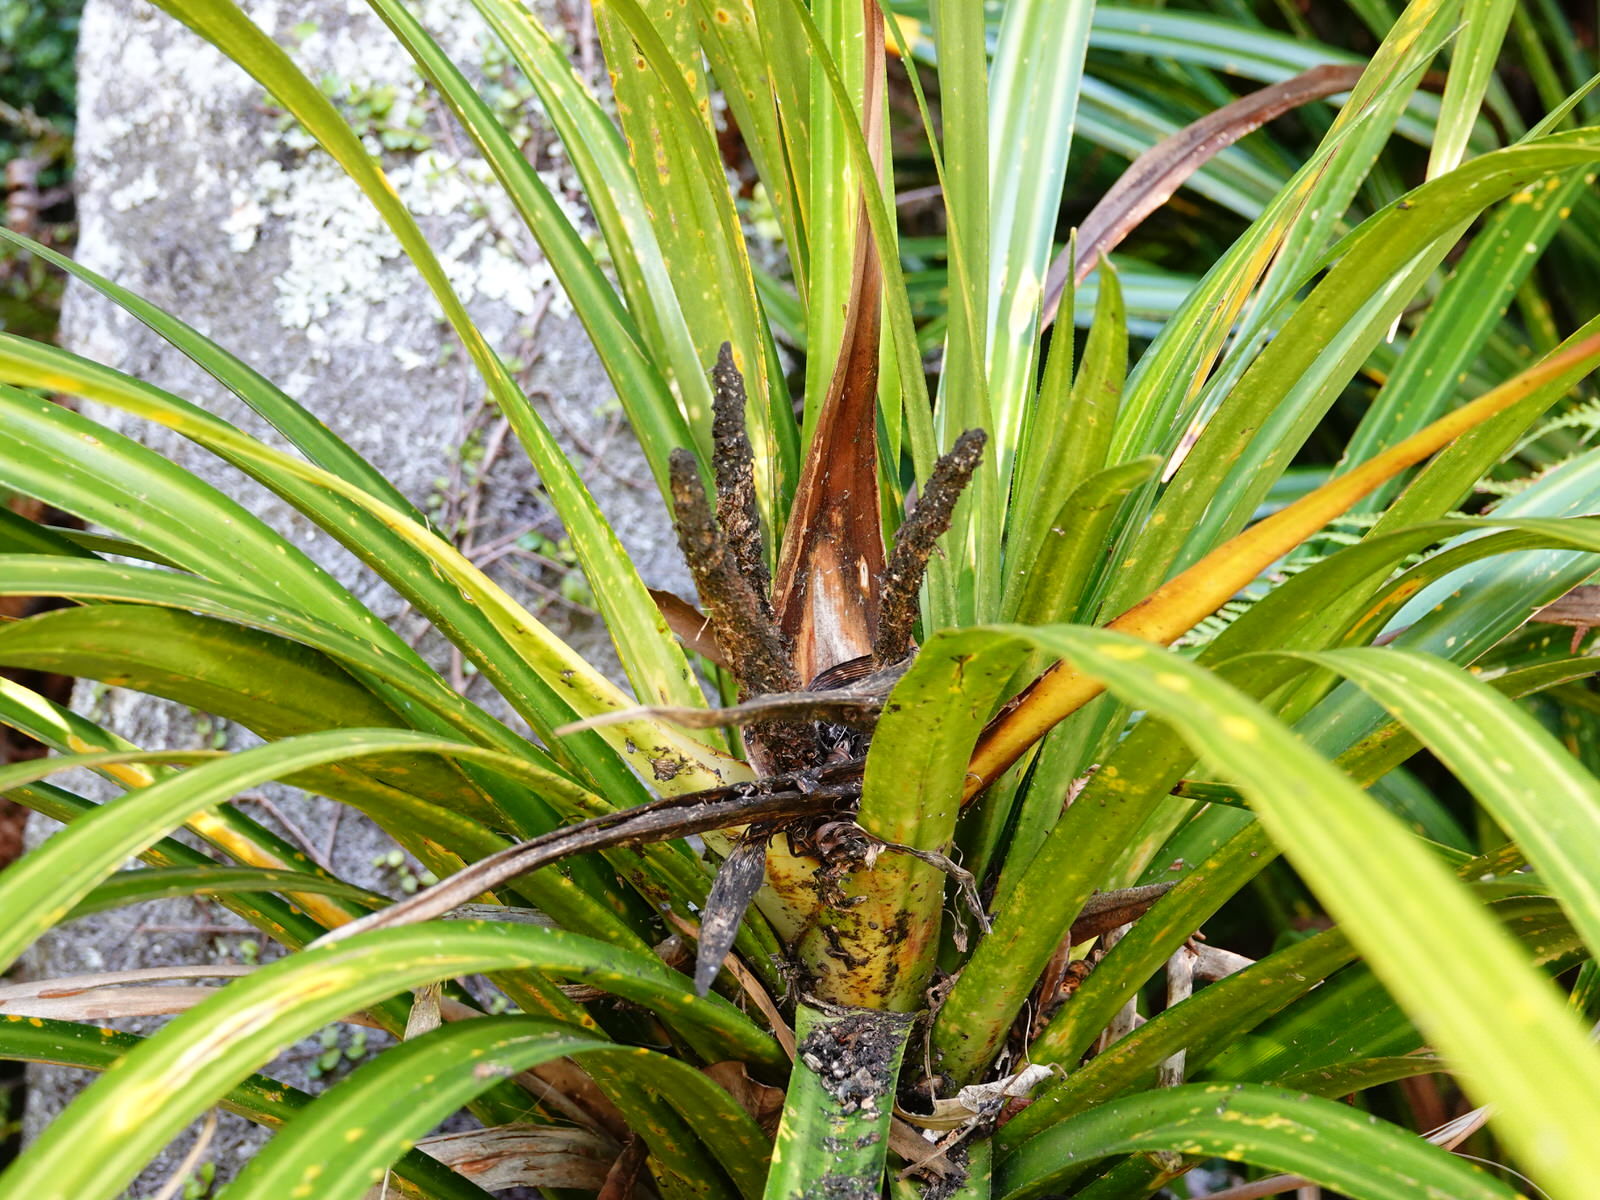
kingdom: Plantae
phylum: Tracheophyta
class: Liliopsida
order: Pandanales
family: Pandanaceae
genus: Freycinetia
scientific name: Freycinetia banksii
